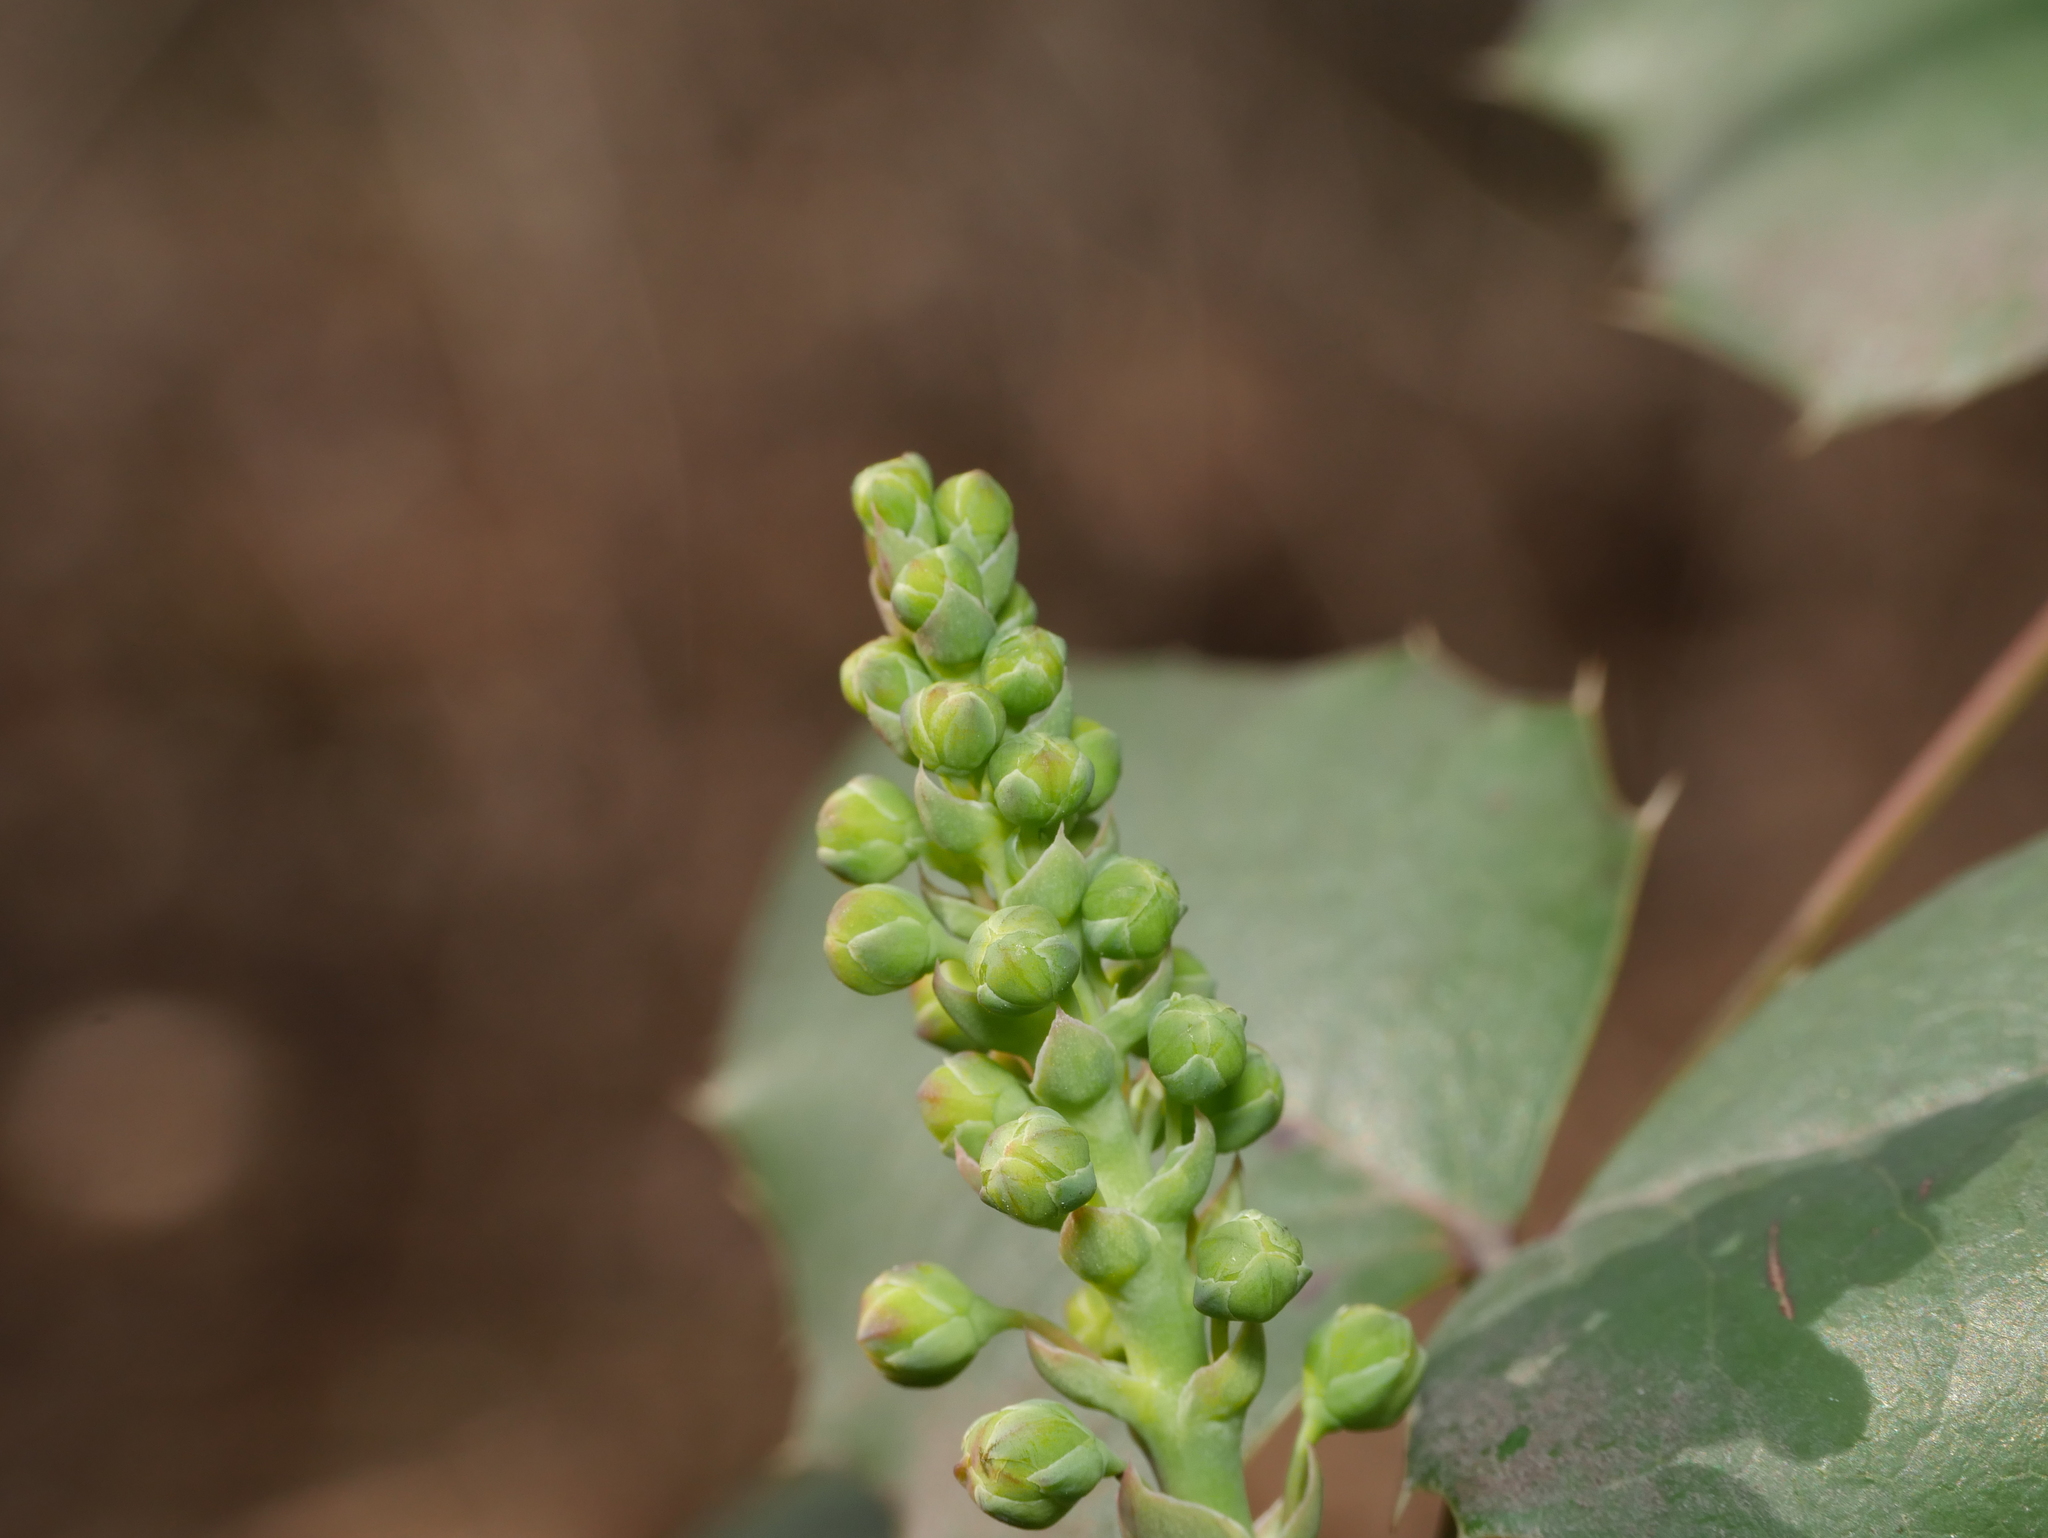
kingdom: Plantae
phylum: Tracheophyta
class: Magnoliopsida
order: Ranunculales
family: Berberidaceae
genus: Mahonia
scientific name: Mahonia aquifolium
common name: Oregon-grape
